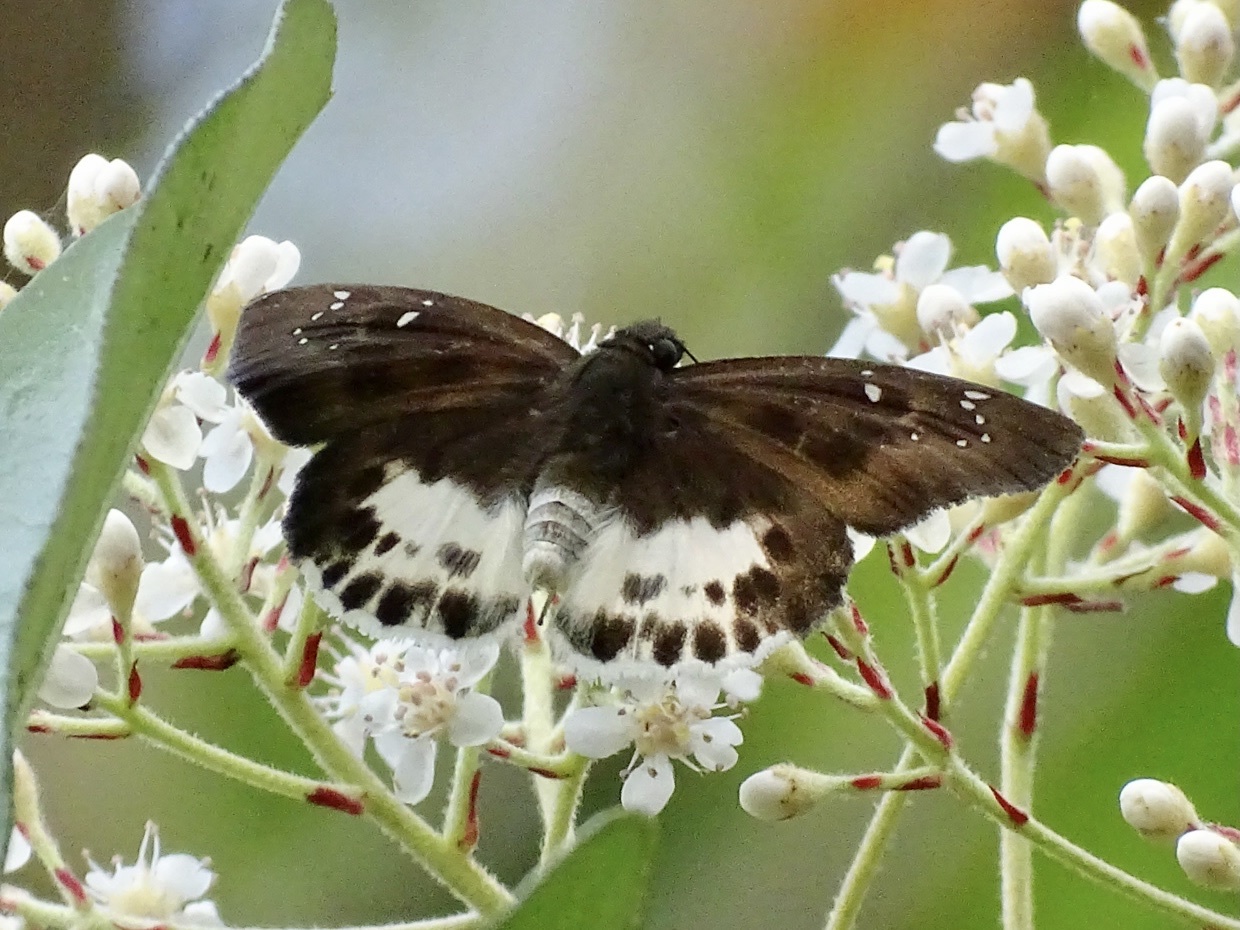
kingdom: Animalia
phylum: Arthropoda
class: Insecta
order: Lepidoptera
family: Hesperiidae
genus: Tagiades
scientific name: Tagiades menaka
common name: Dark-edged snow flat
